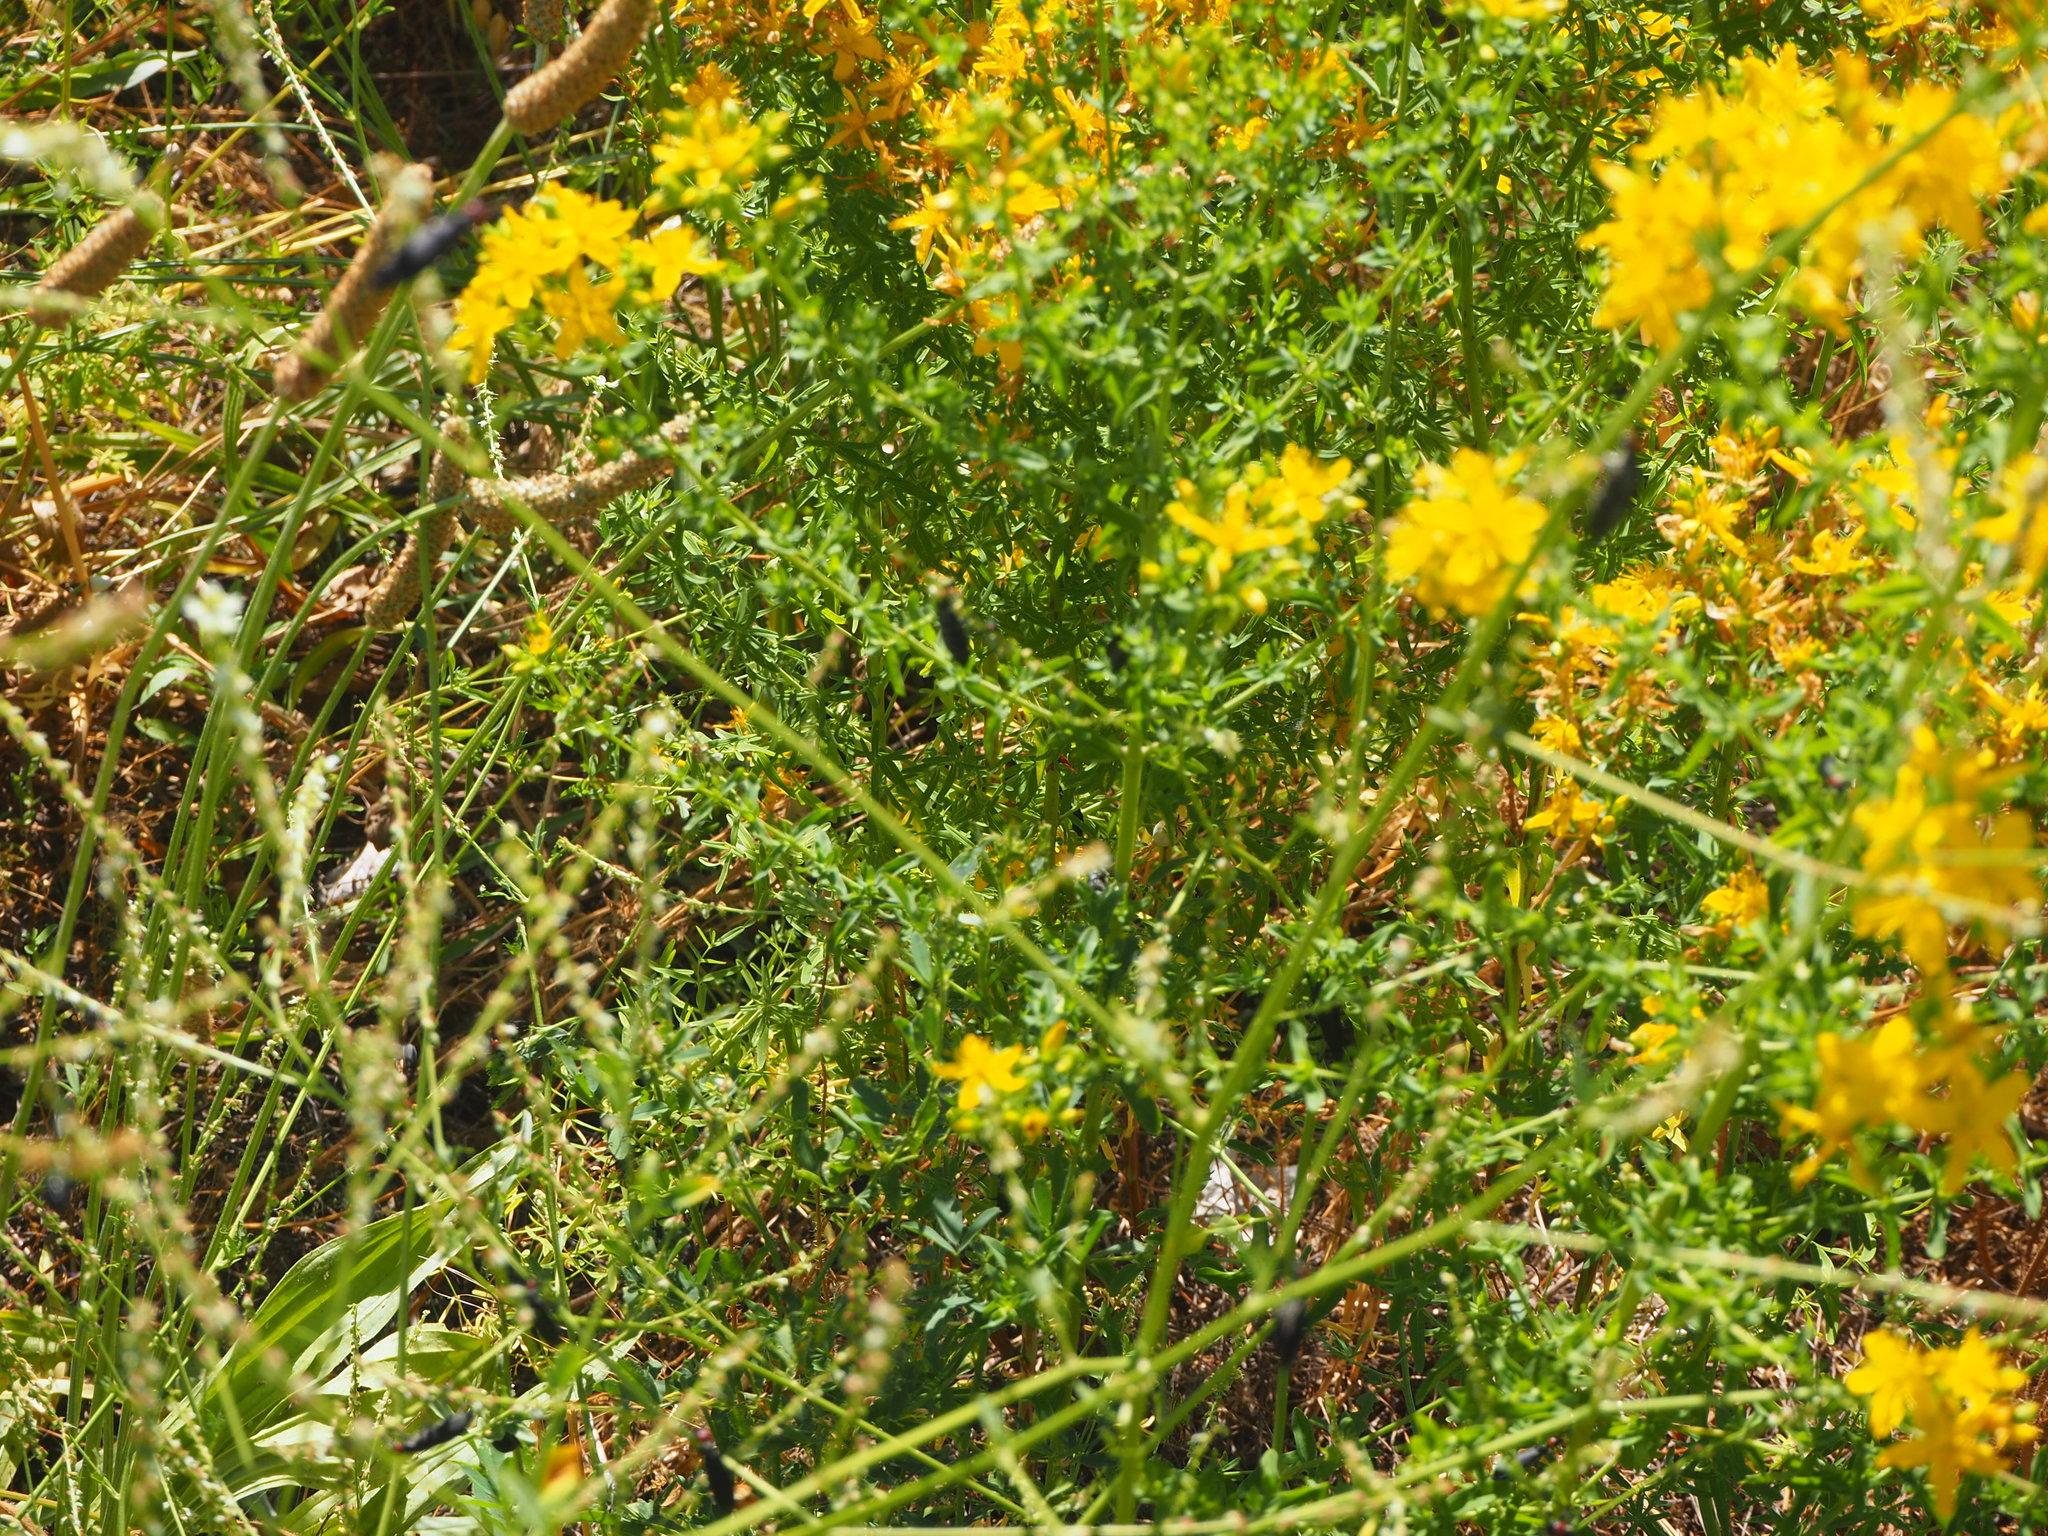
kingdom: Animalia
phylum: Arthropoda
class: Insecta
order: Coleoptera
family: Meloidae
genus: Epicauta
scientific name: Epicauta rufidorsum
